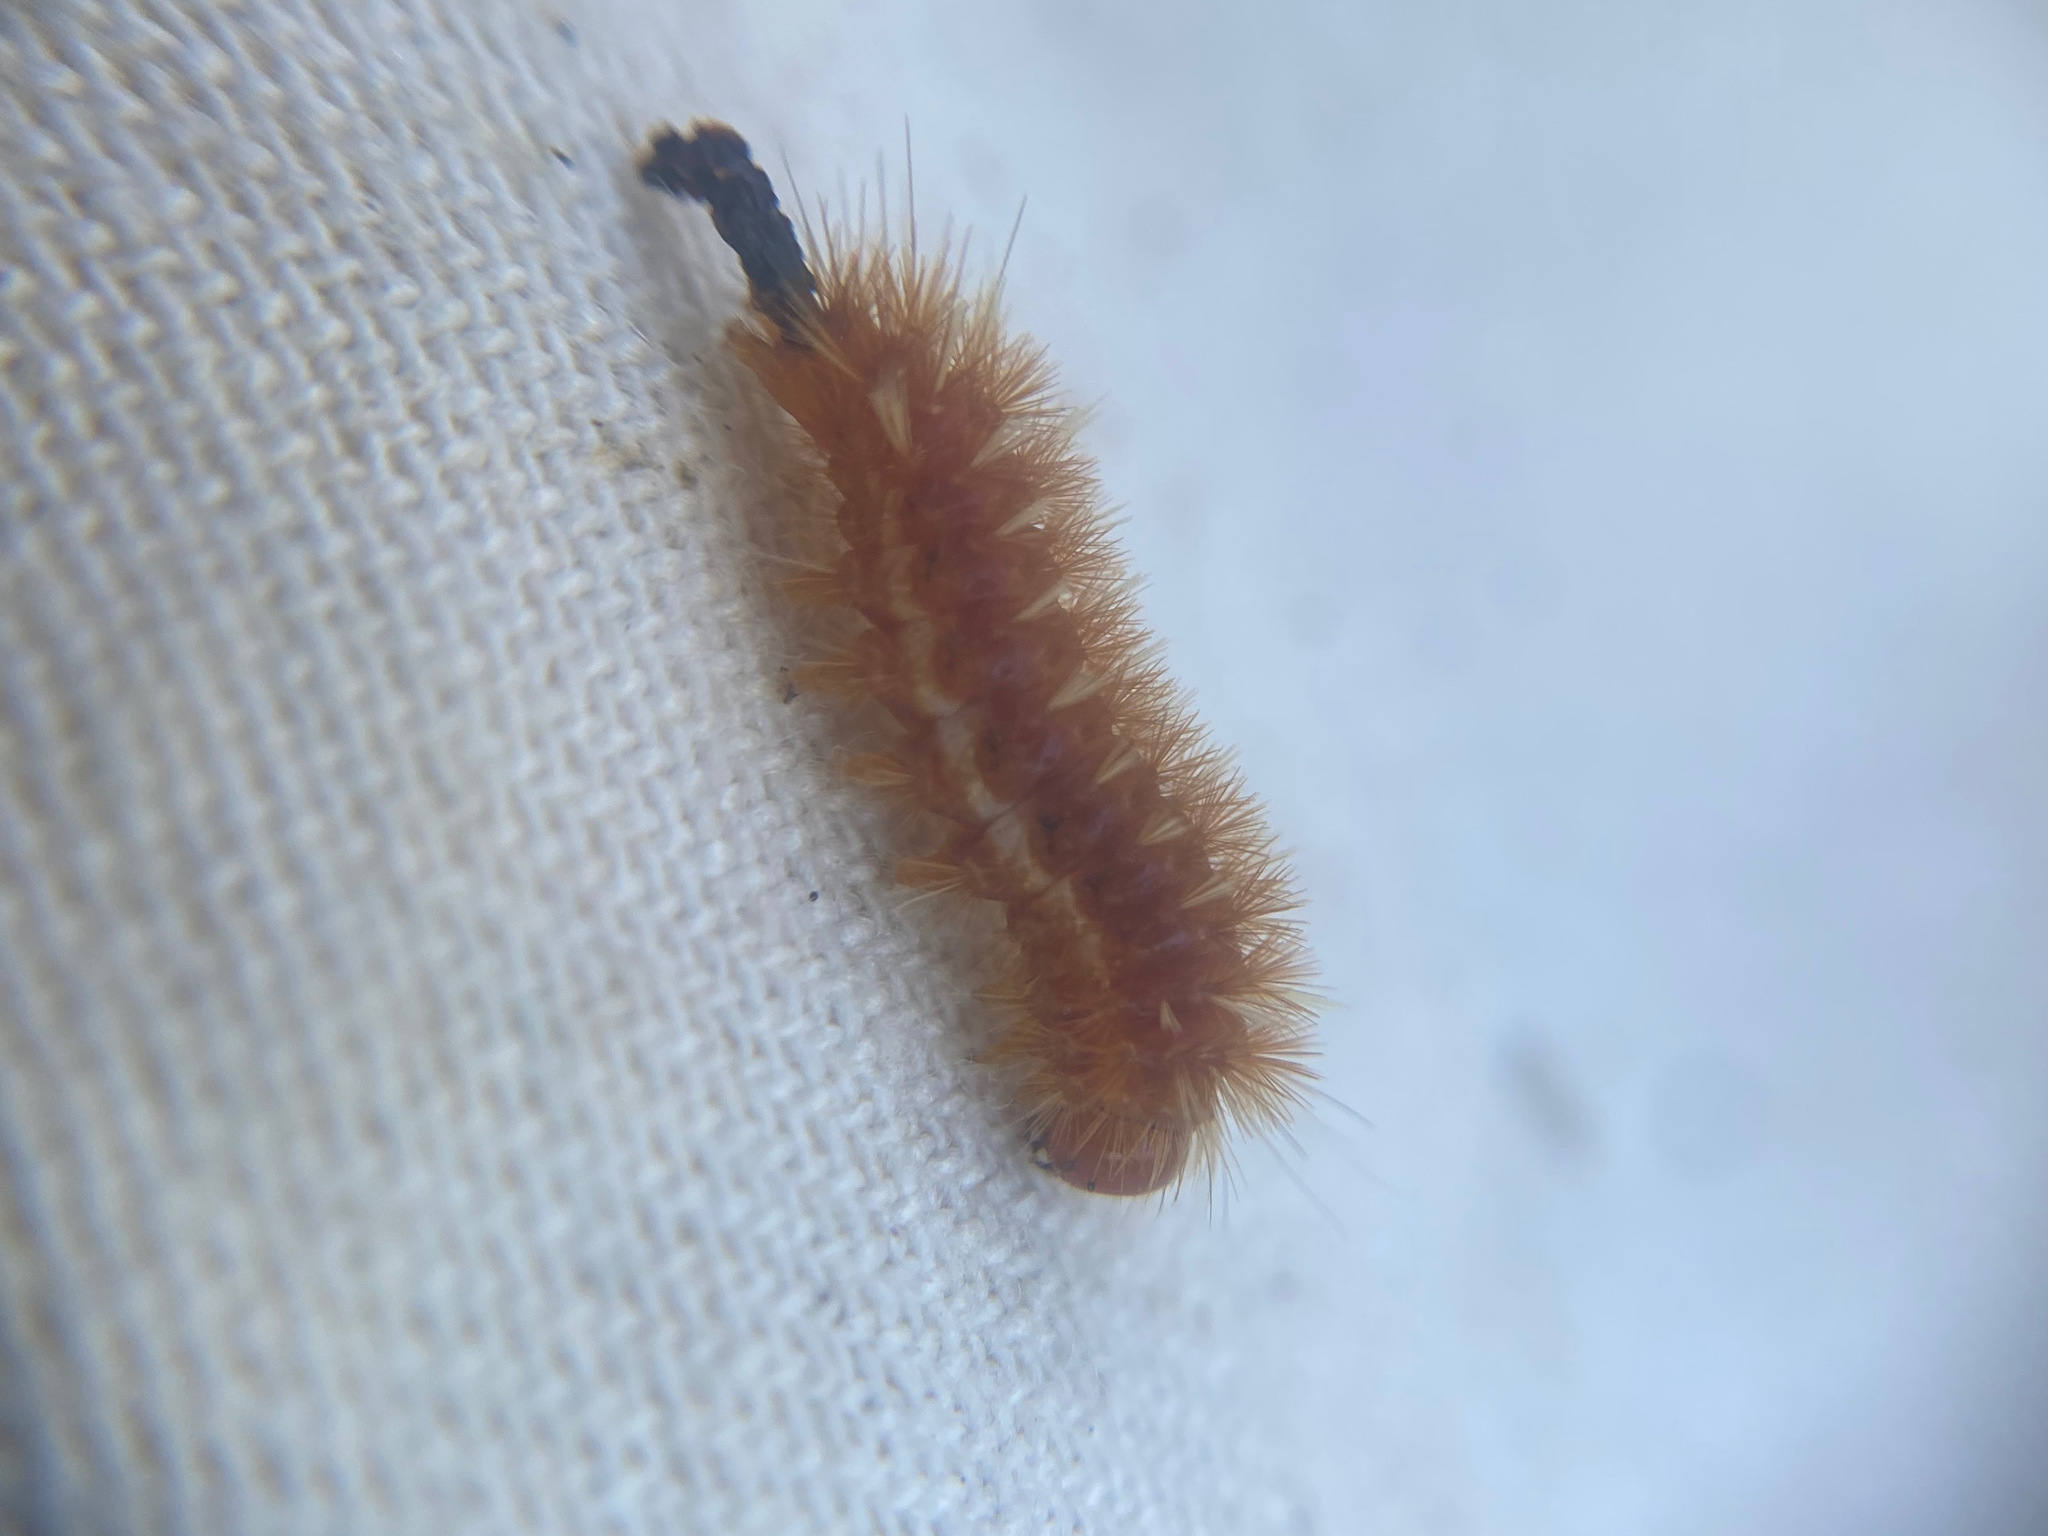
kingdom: Animalia
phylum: Arthropoda
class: Insecta
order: Lepidoptera
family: Erebidae
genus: Lophocampa
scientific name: Lophocampa roseata
